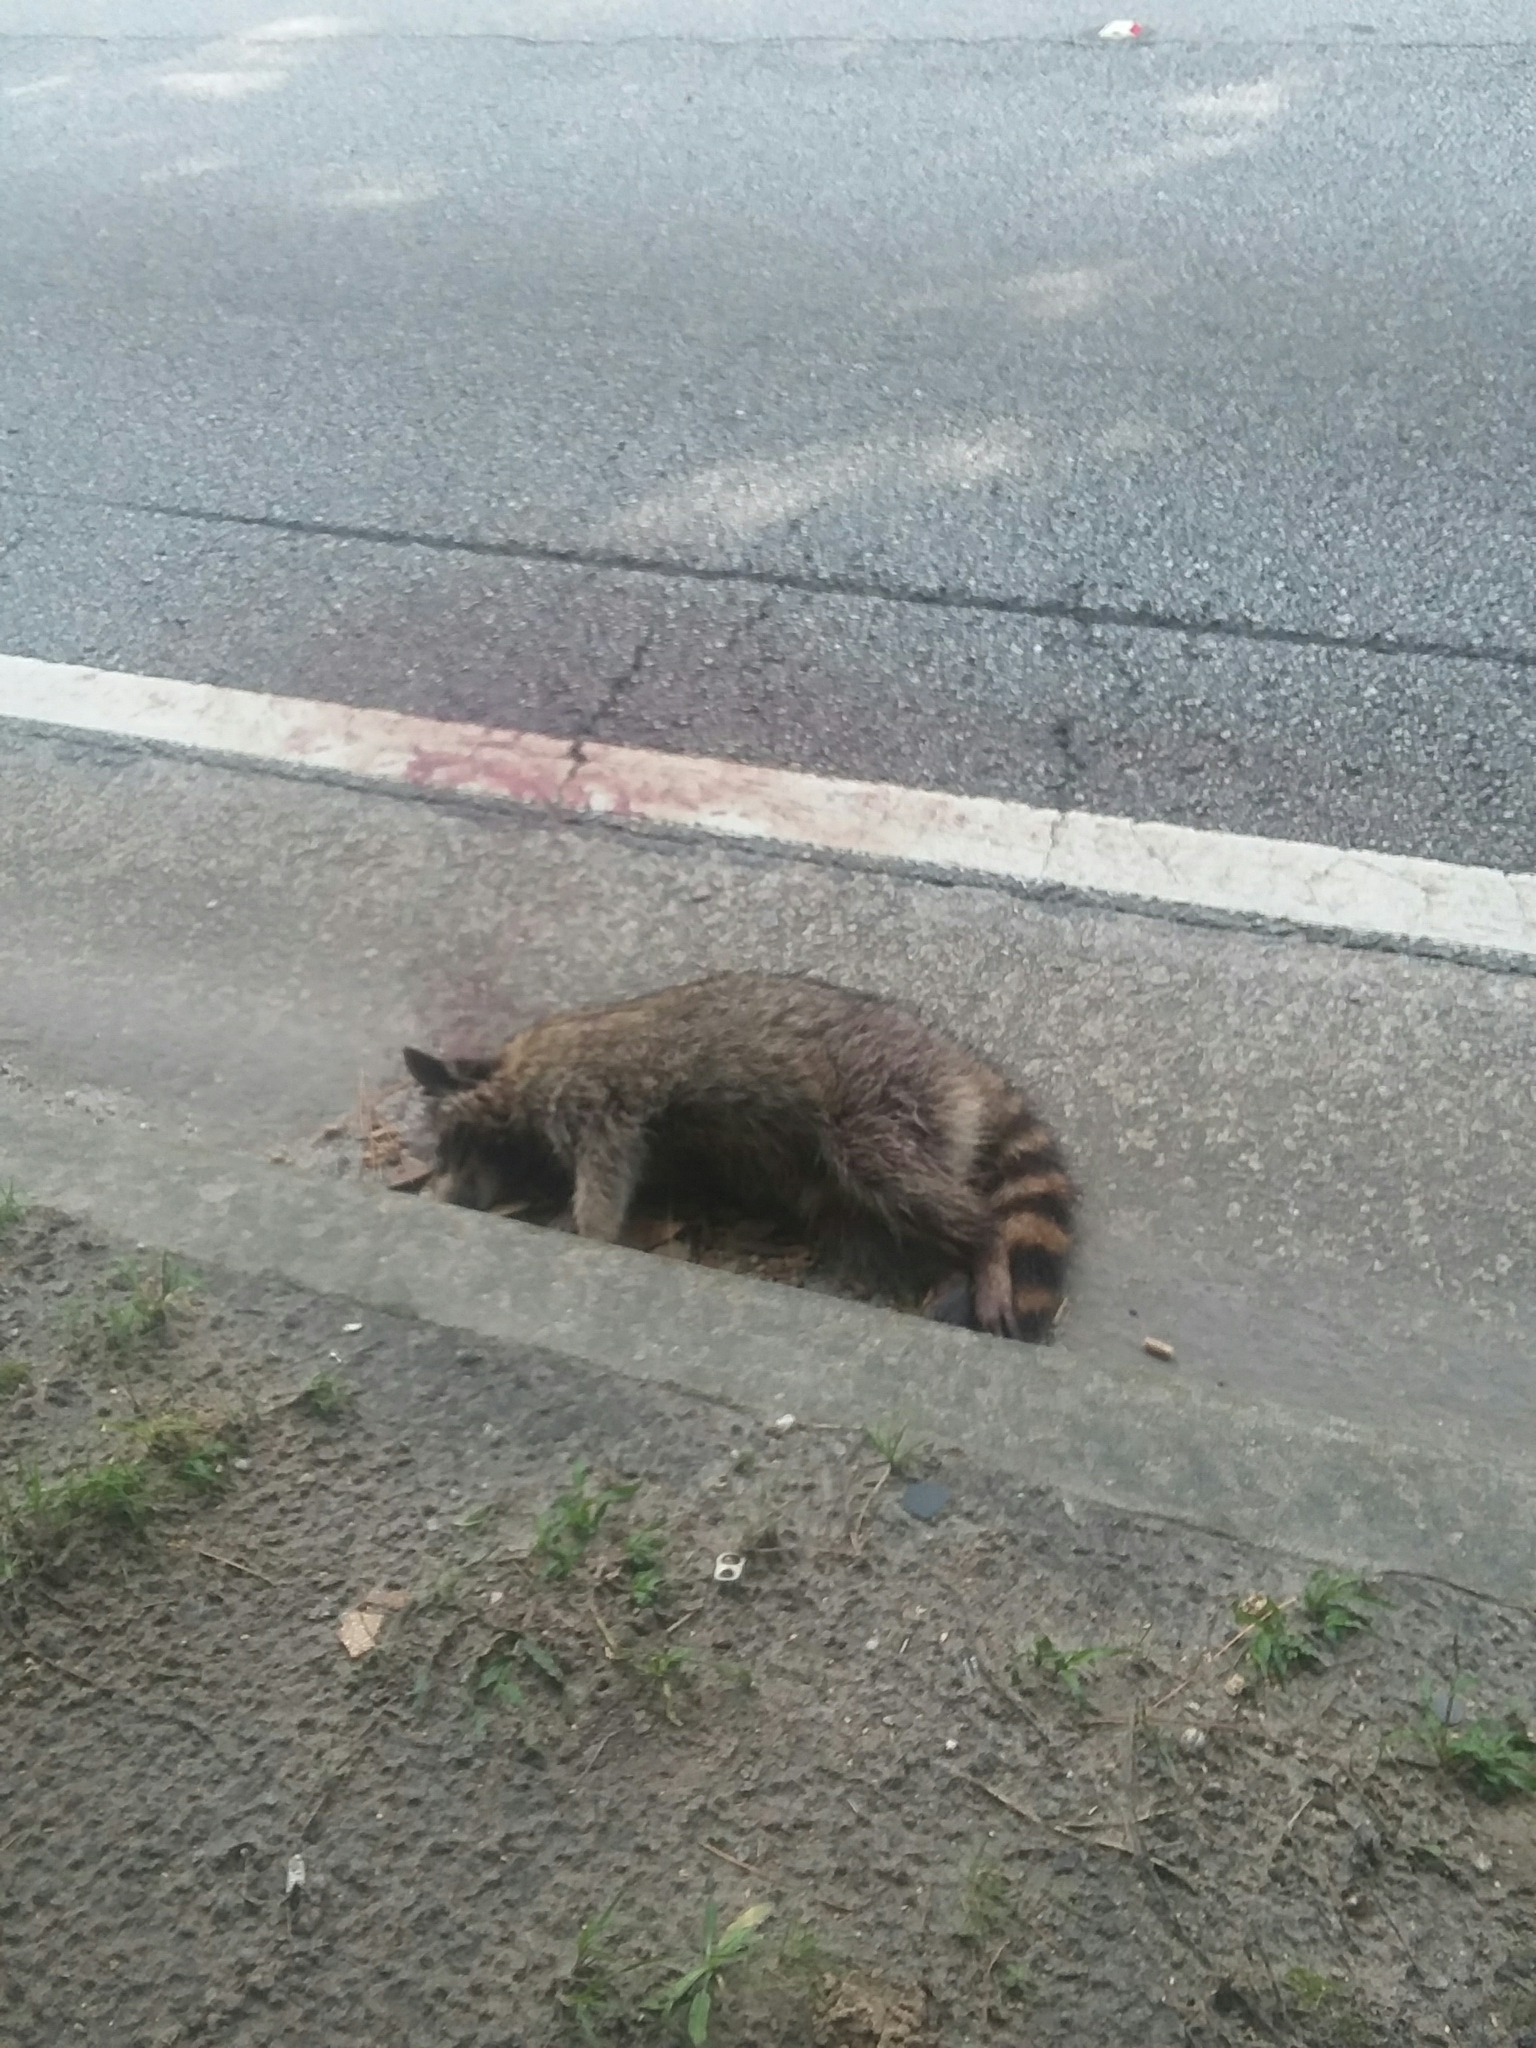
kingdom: Animalia
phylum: Chordata
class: Mammalia
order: Carnivora
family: Procyonidae
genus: Procyon
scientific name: Procyon lotor
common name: Raccoon
